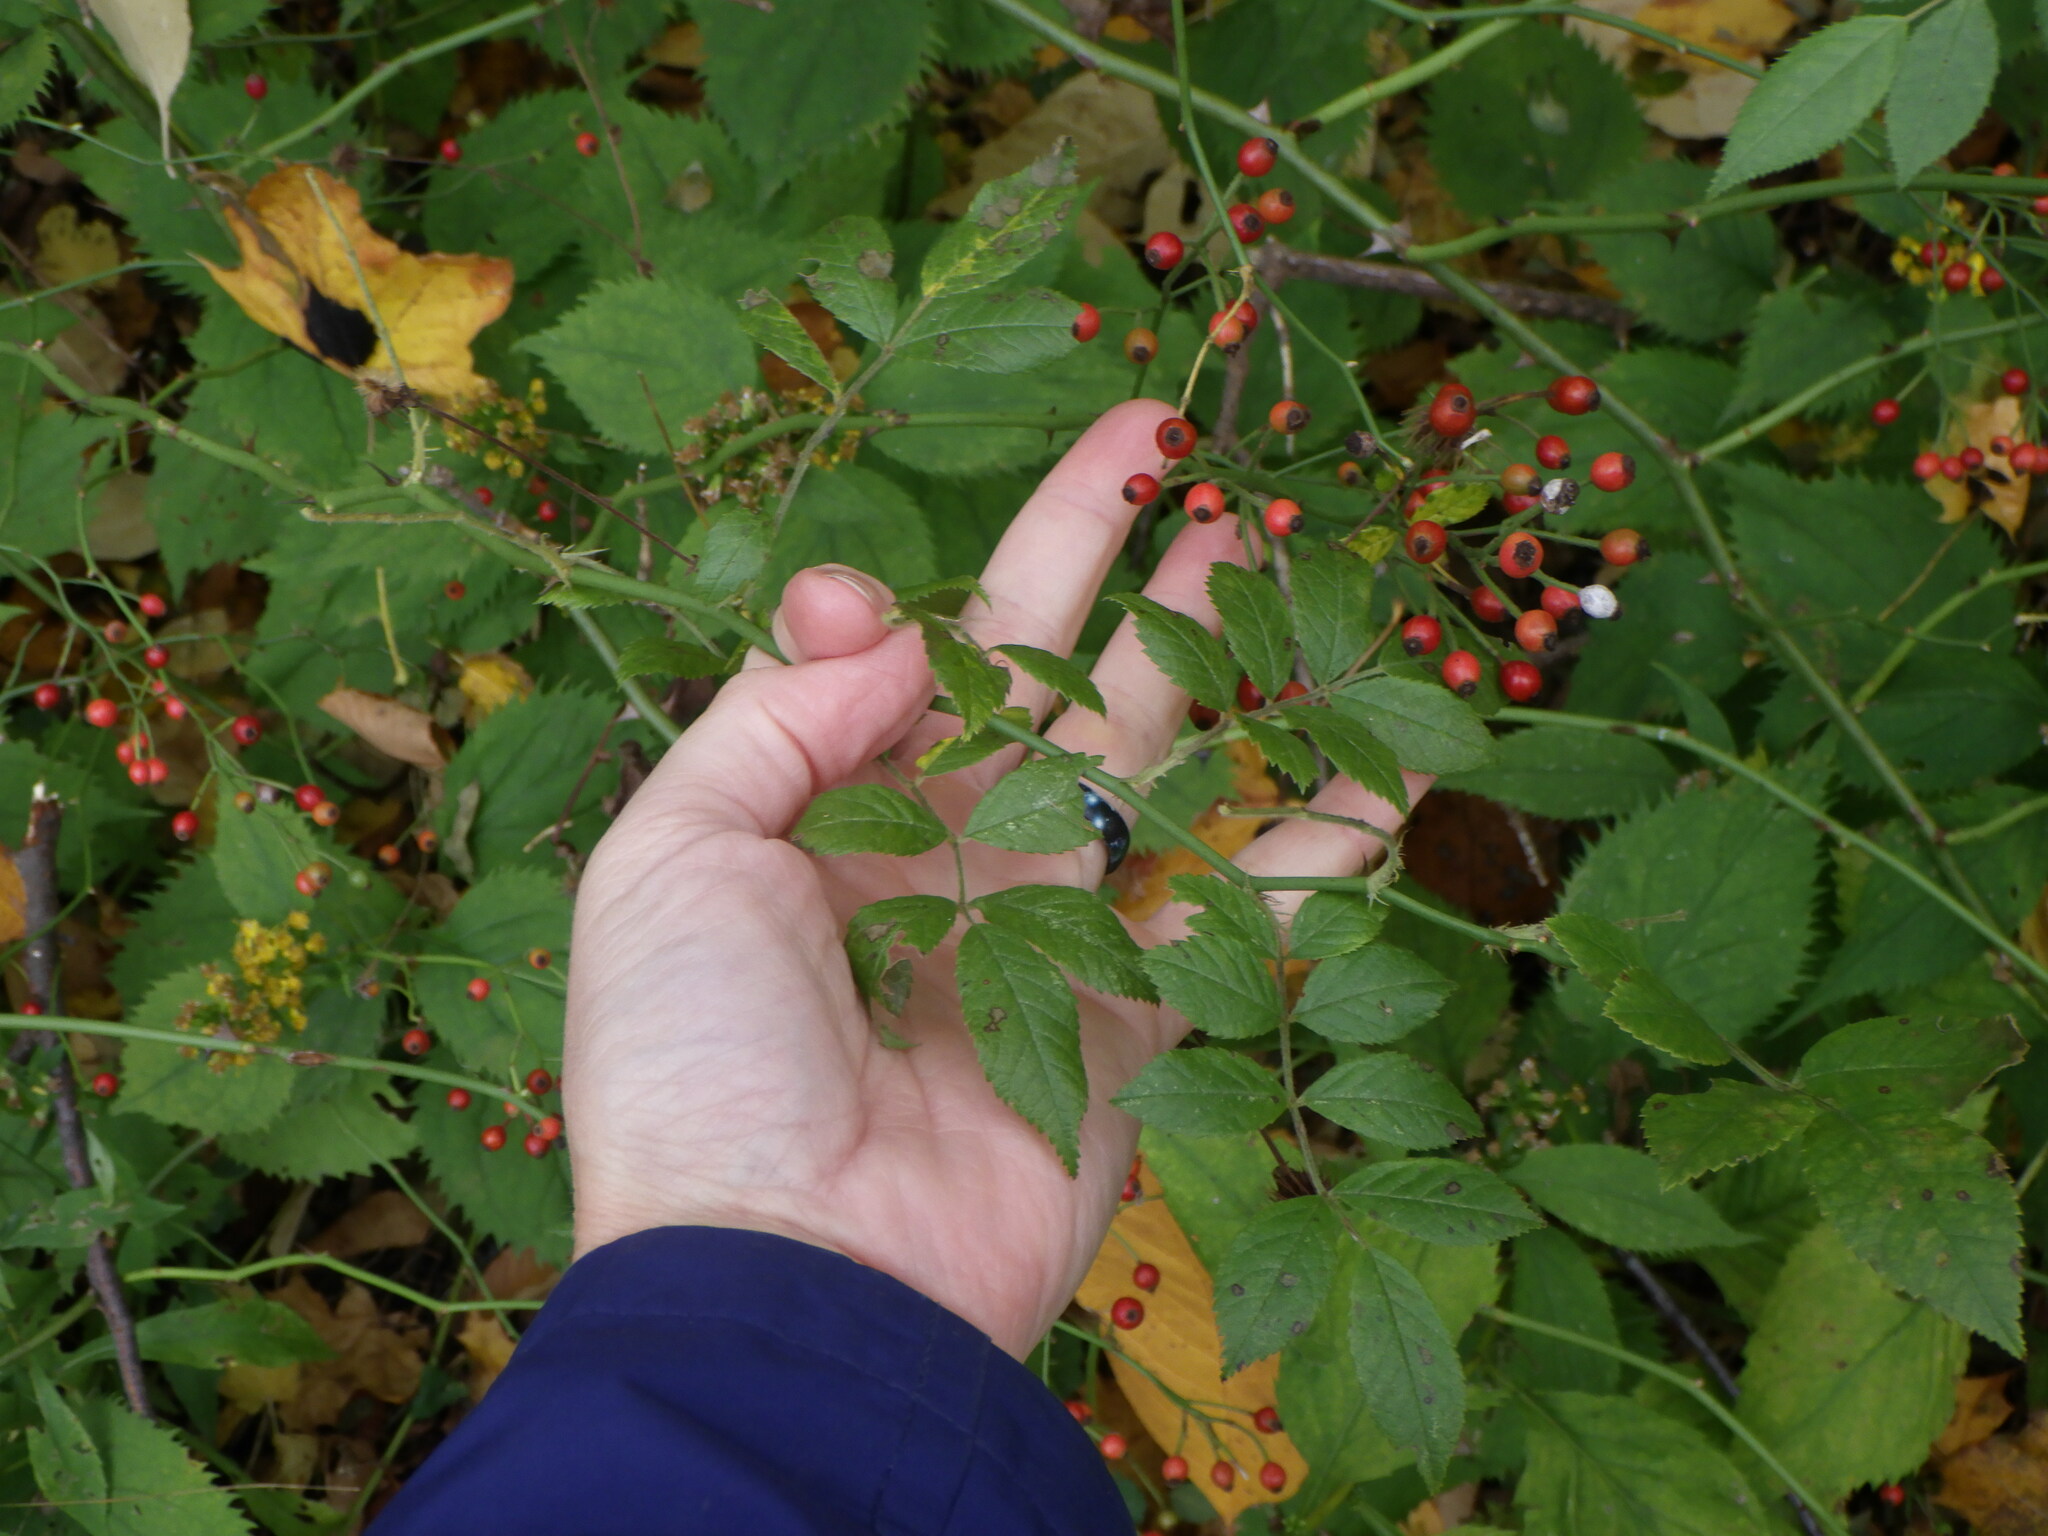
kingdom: Plantae
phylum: Tracheophyta
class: Magnoliopsida
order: Rosales
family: Rosaceae
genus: Rosa
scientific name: Rosa multiflora
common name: Multiflora rose
